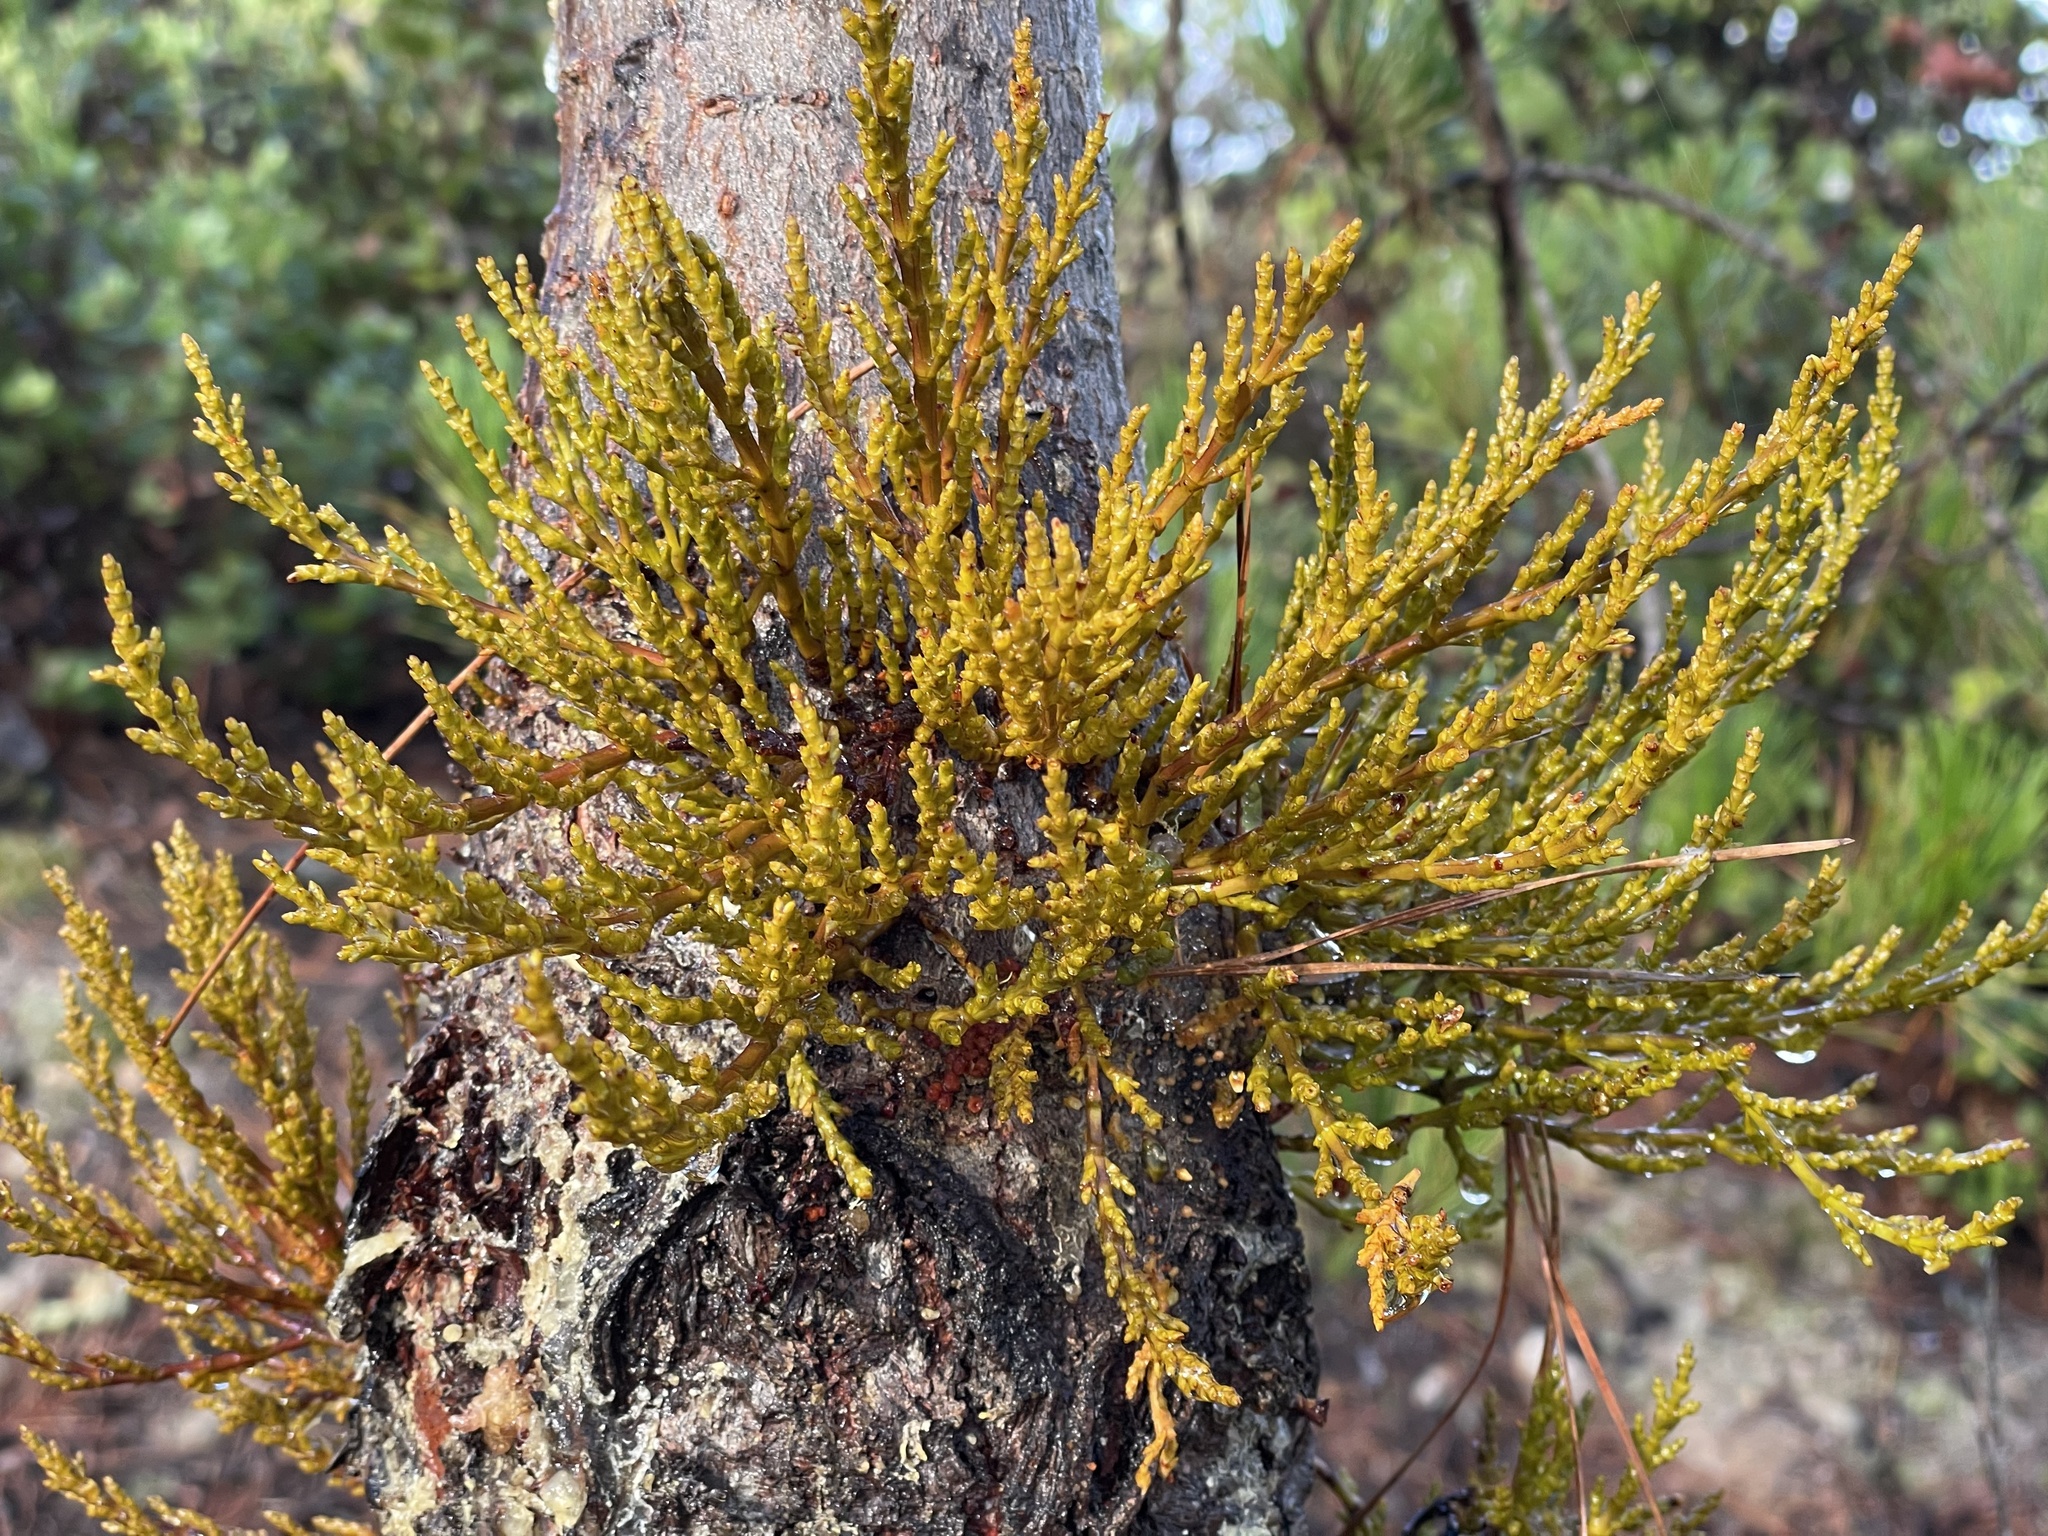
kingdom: Plantae
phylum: Tracheophyta
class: Magnoliopsida
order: Santalales
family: Viscaceae
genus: Arceuthobium
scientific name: Arceuthobium campylopodum
